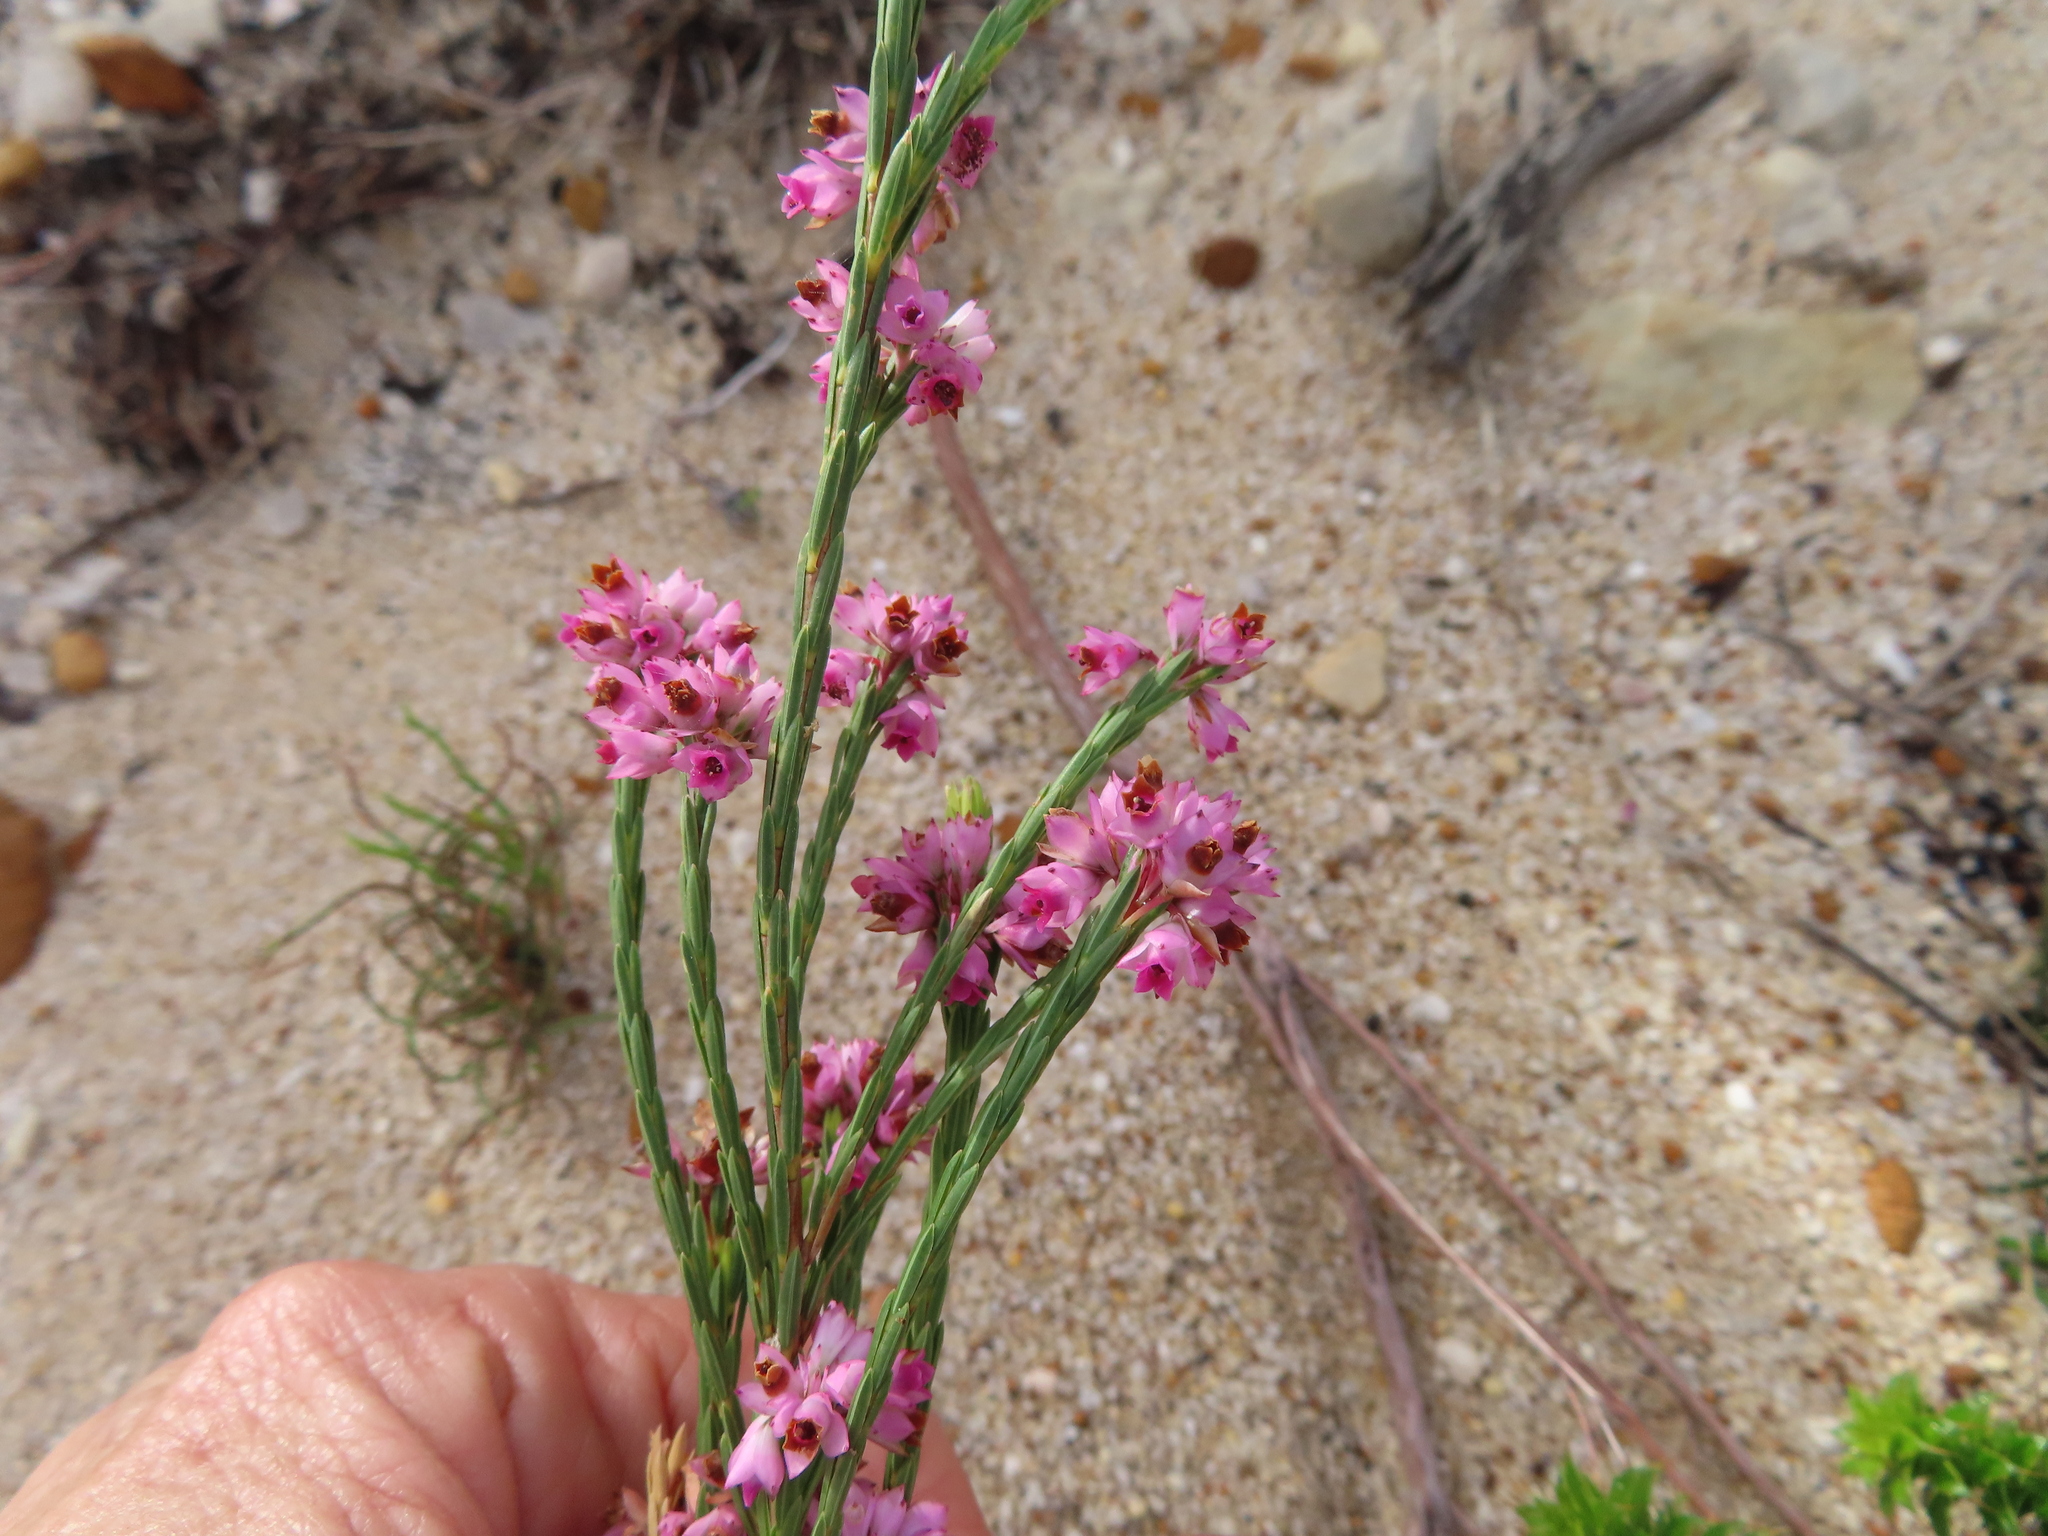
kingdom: Plantae
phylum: Tracheophyta
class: Magnoliopsida
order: Ericales
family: Ericaceae
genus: Erica
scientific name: Erica corifolia
